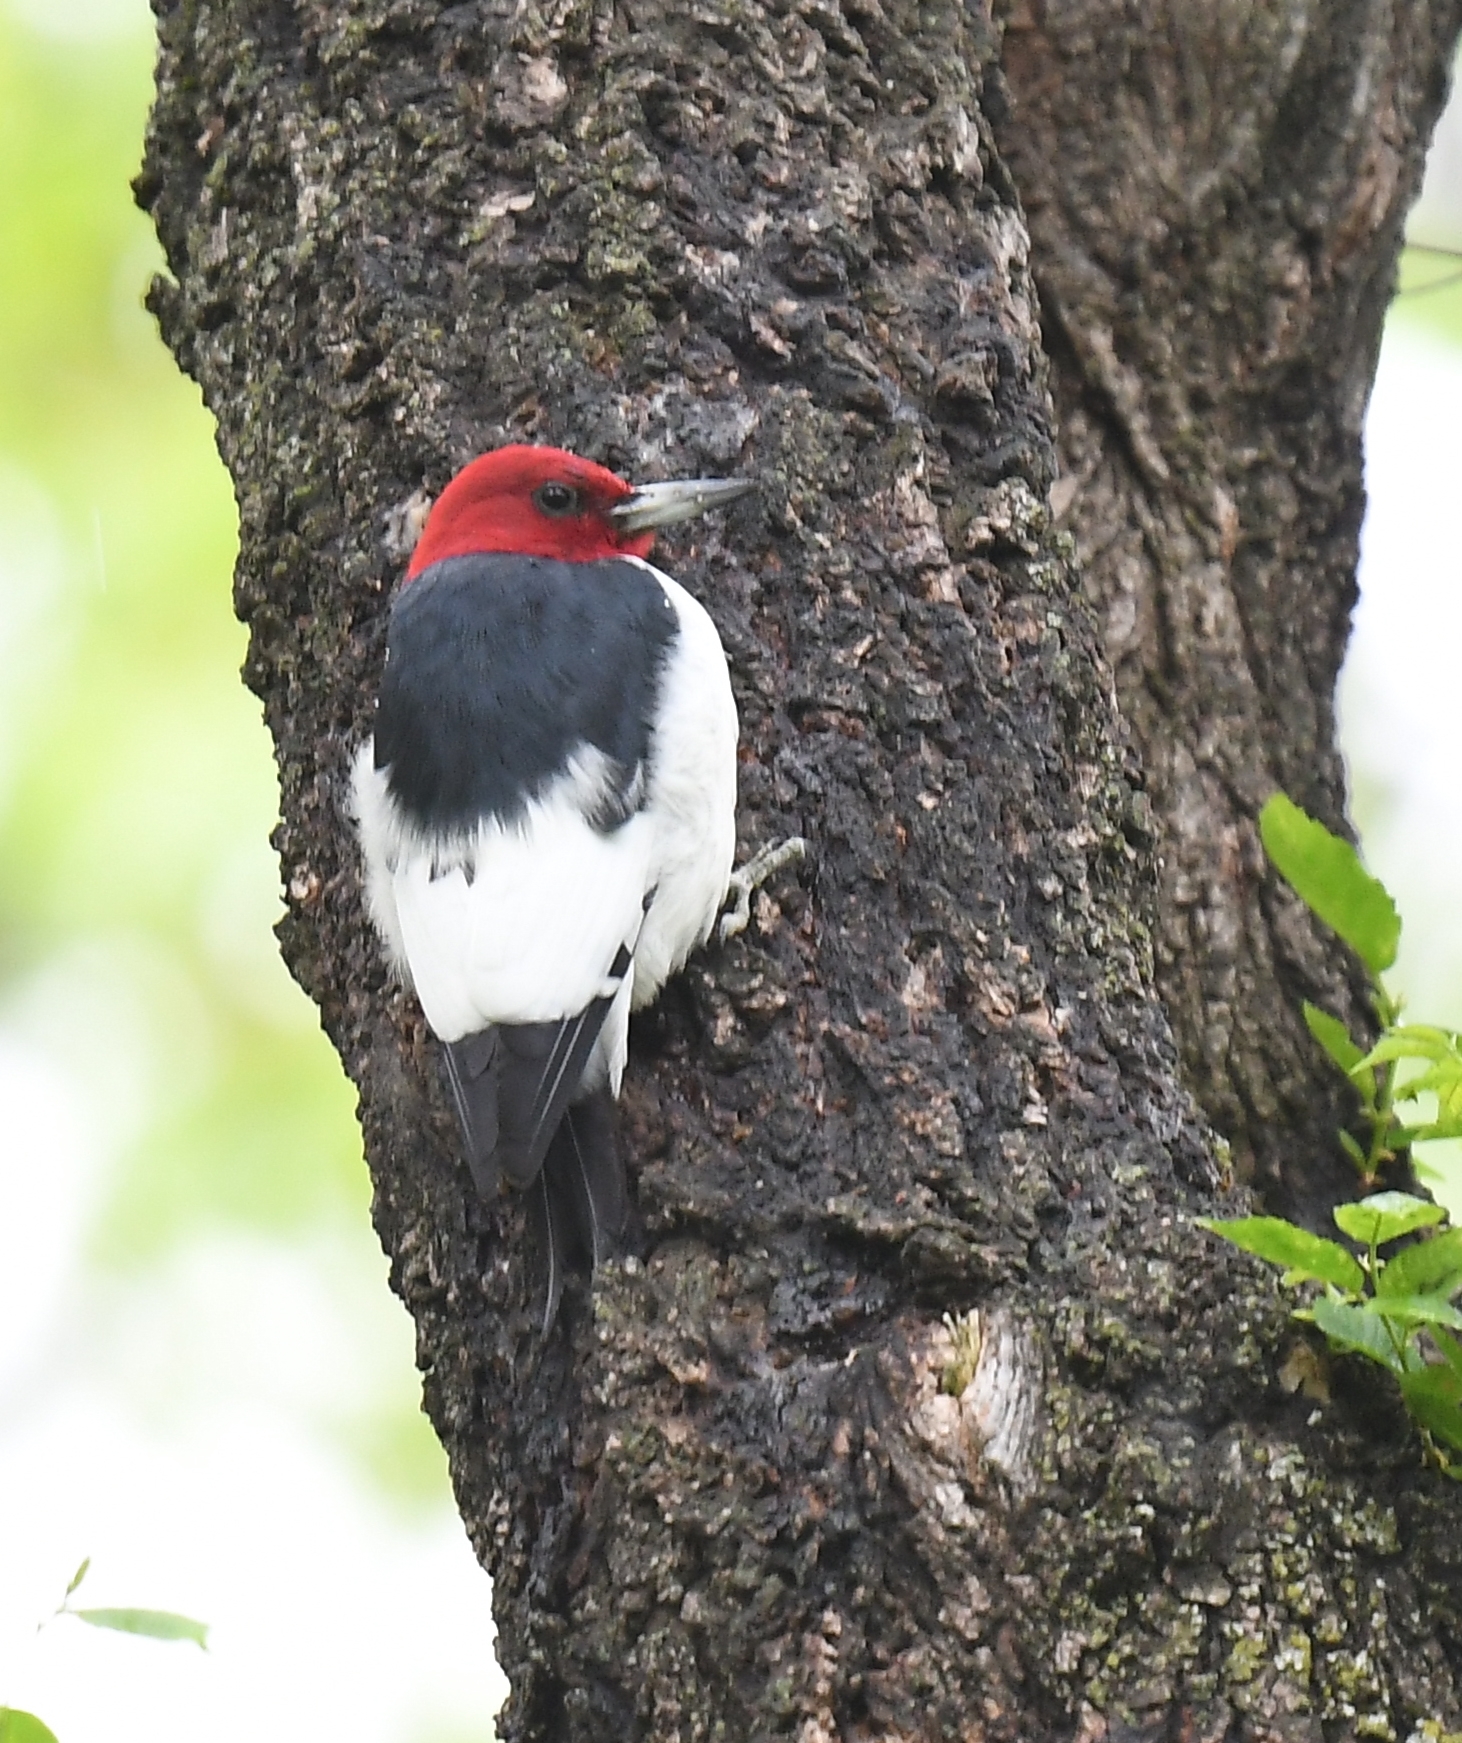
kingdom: Animalia
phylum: Chordata
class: Aves
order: Piciformes
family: Picidae
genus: Melanerpes
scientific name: Melanerpes erythrocephalus
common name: Red-headed woodpecker
